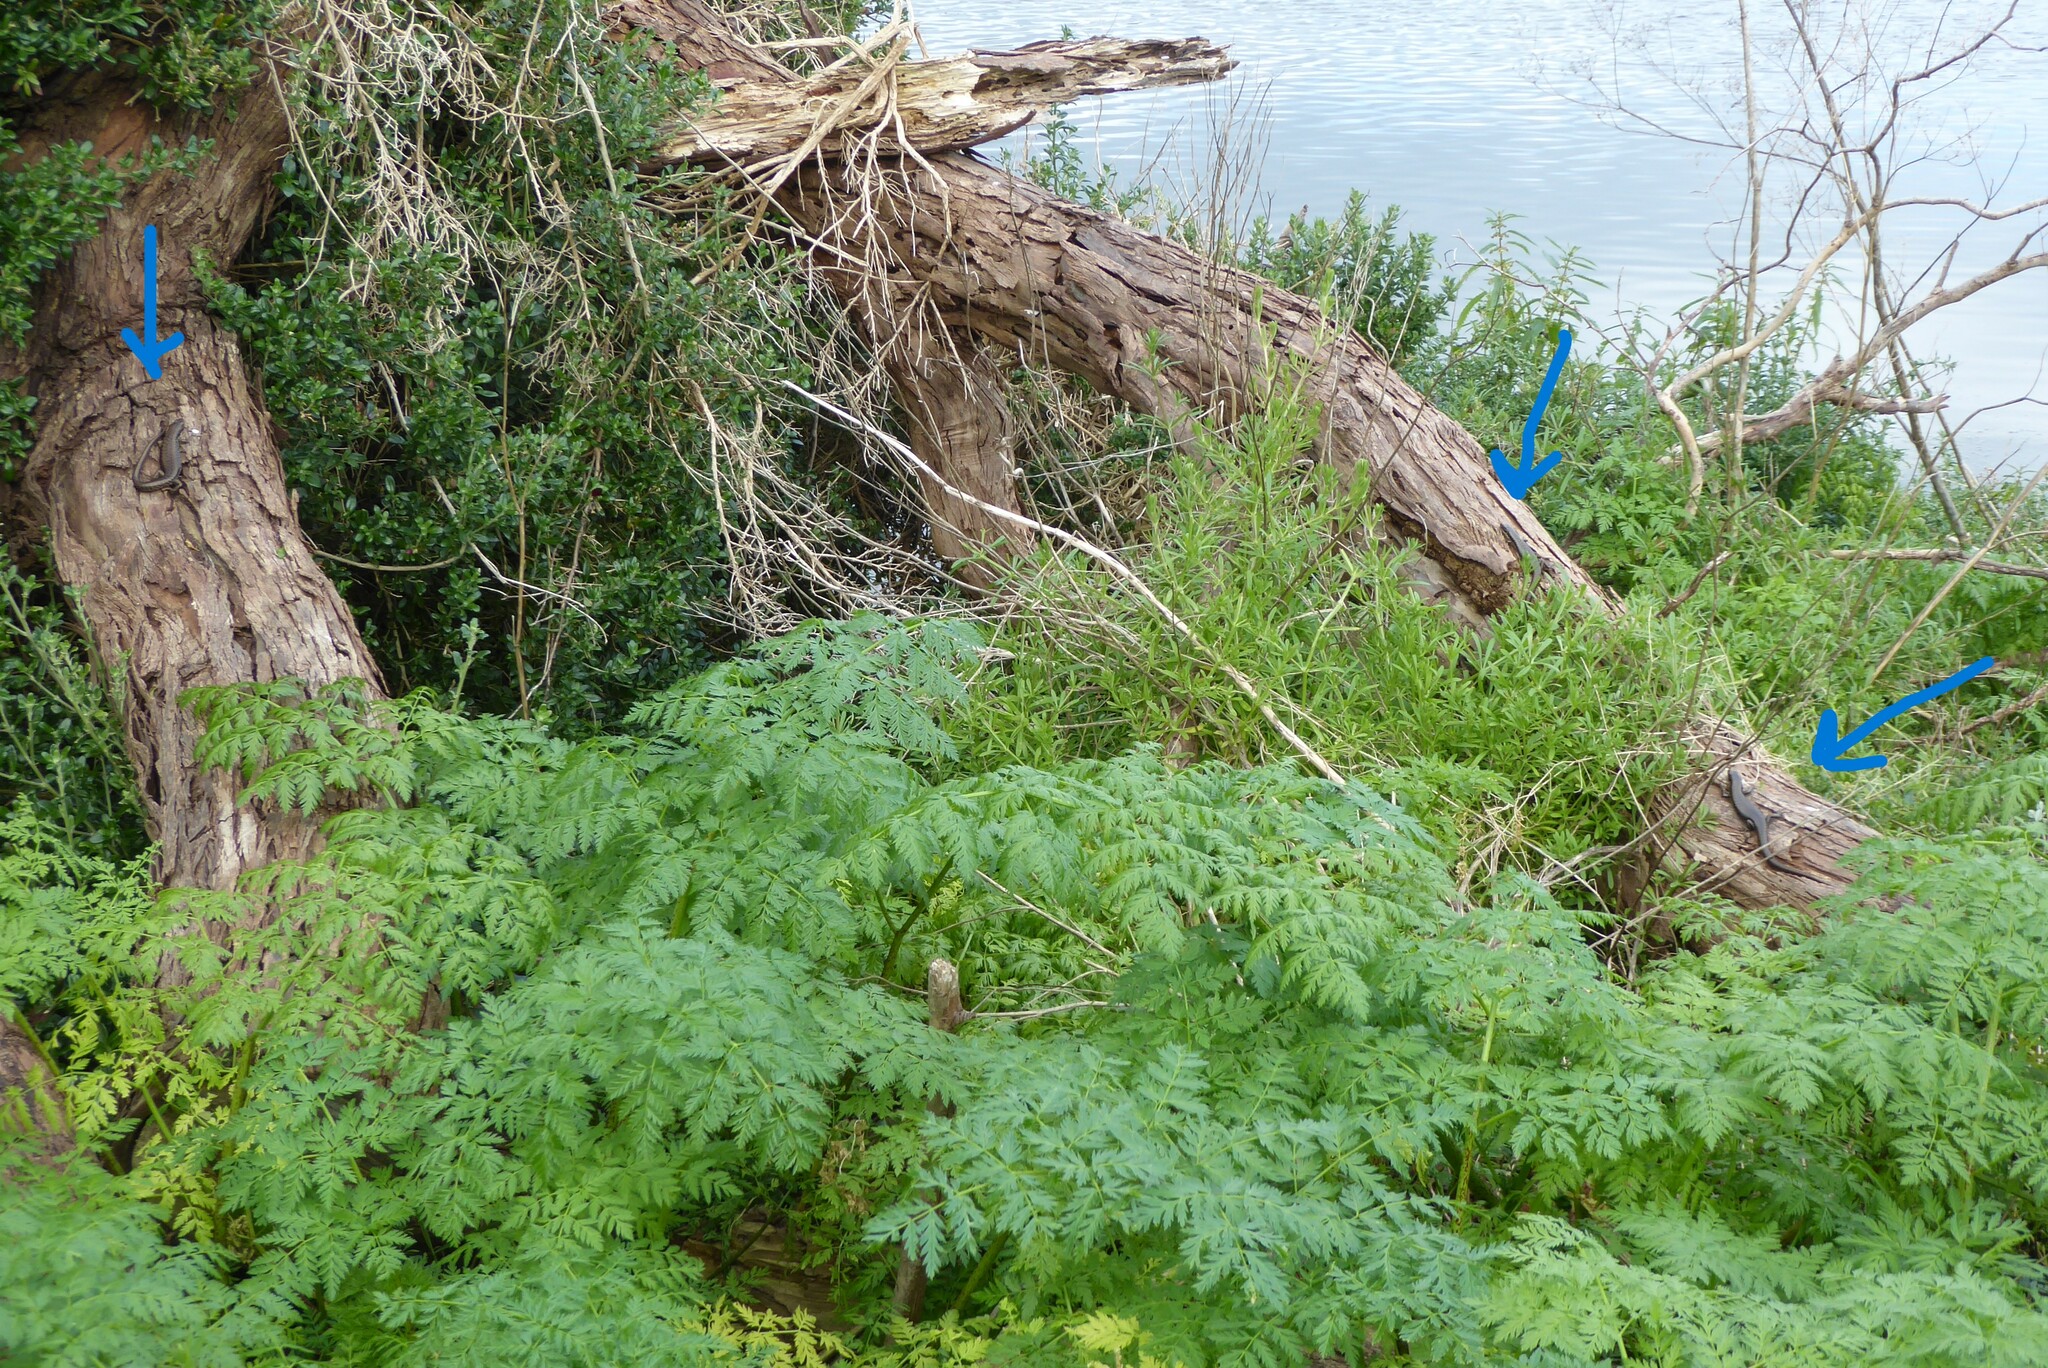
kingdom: Animalia
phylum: Chordata
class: Squamata
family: Scincidae
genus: Eulamprus
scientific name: Eulamprus tympanum
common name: Cool-temperate water-skink
